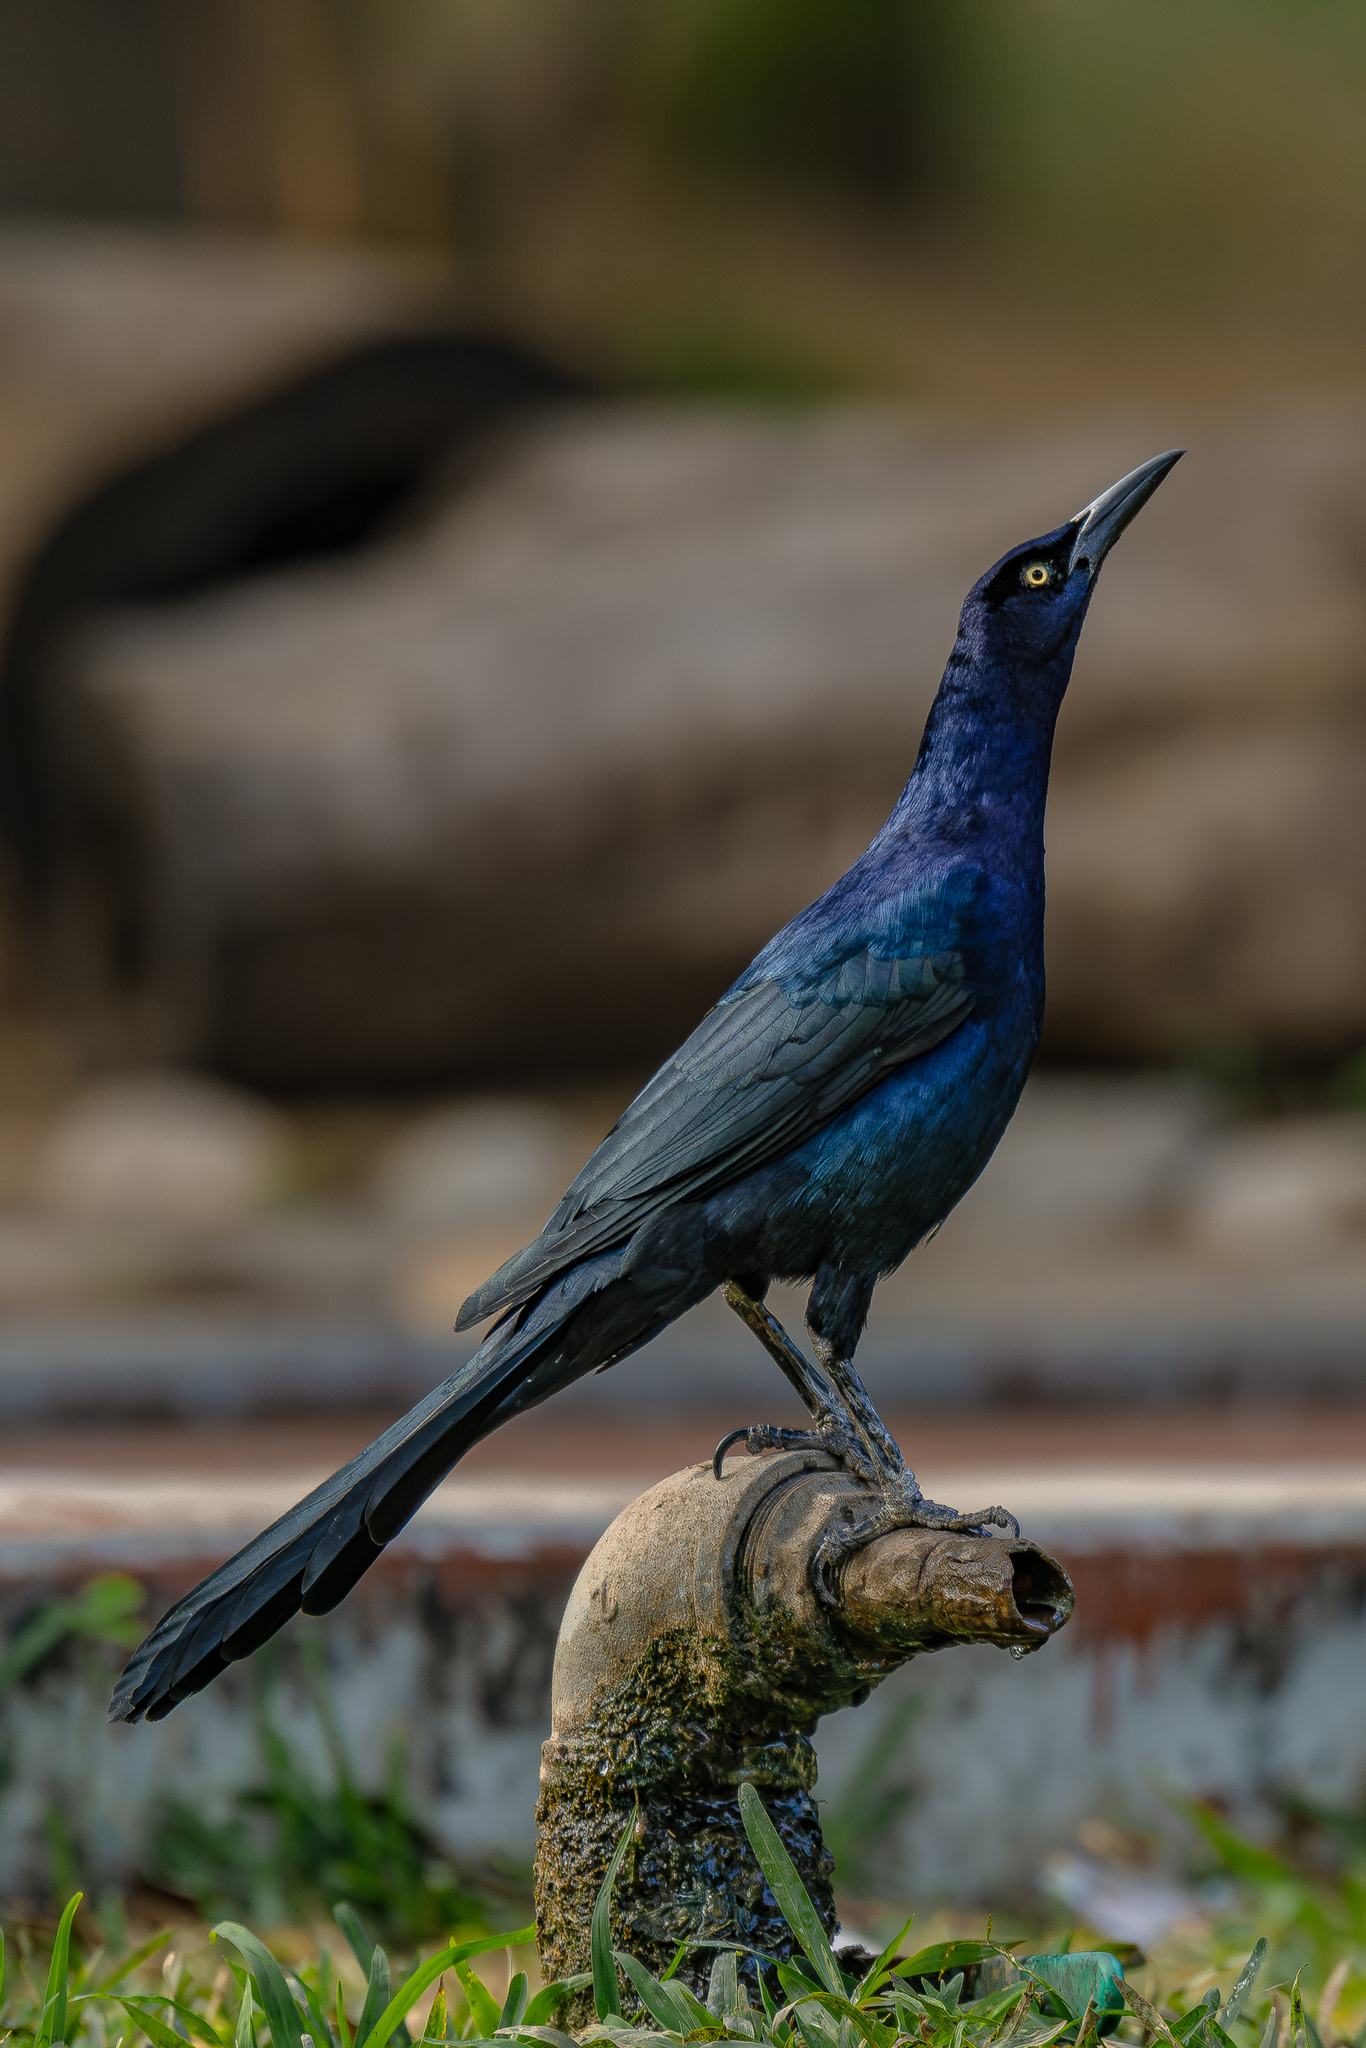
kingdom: Animalia
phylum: Chordata
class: Aves
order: Passeriformes
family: Icteridae
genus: Quiscalus
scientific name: Quiscalus mexicanus
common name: Great-tailed grackle
